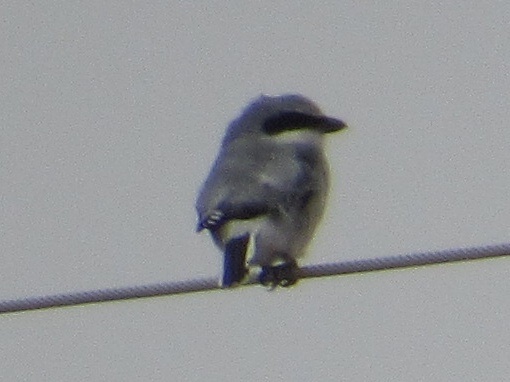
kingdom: Animalia
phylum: Chordata
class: Aves
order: Passeriformes
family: Laniidae
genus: Lanius
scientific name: Lanius ludovicianus
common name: Loggerhead shrike
